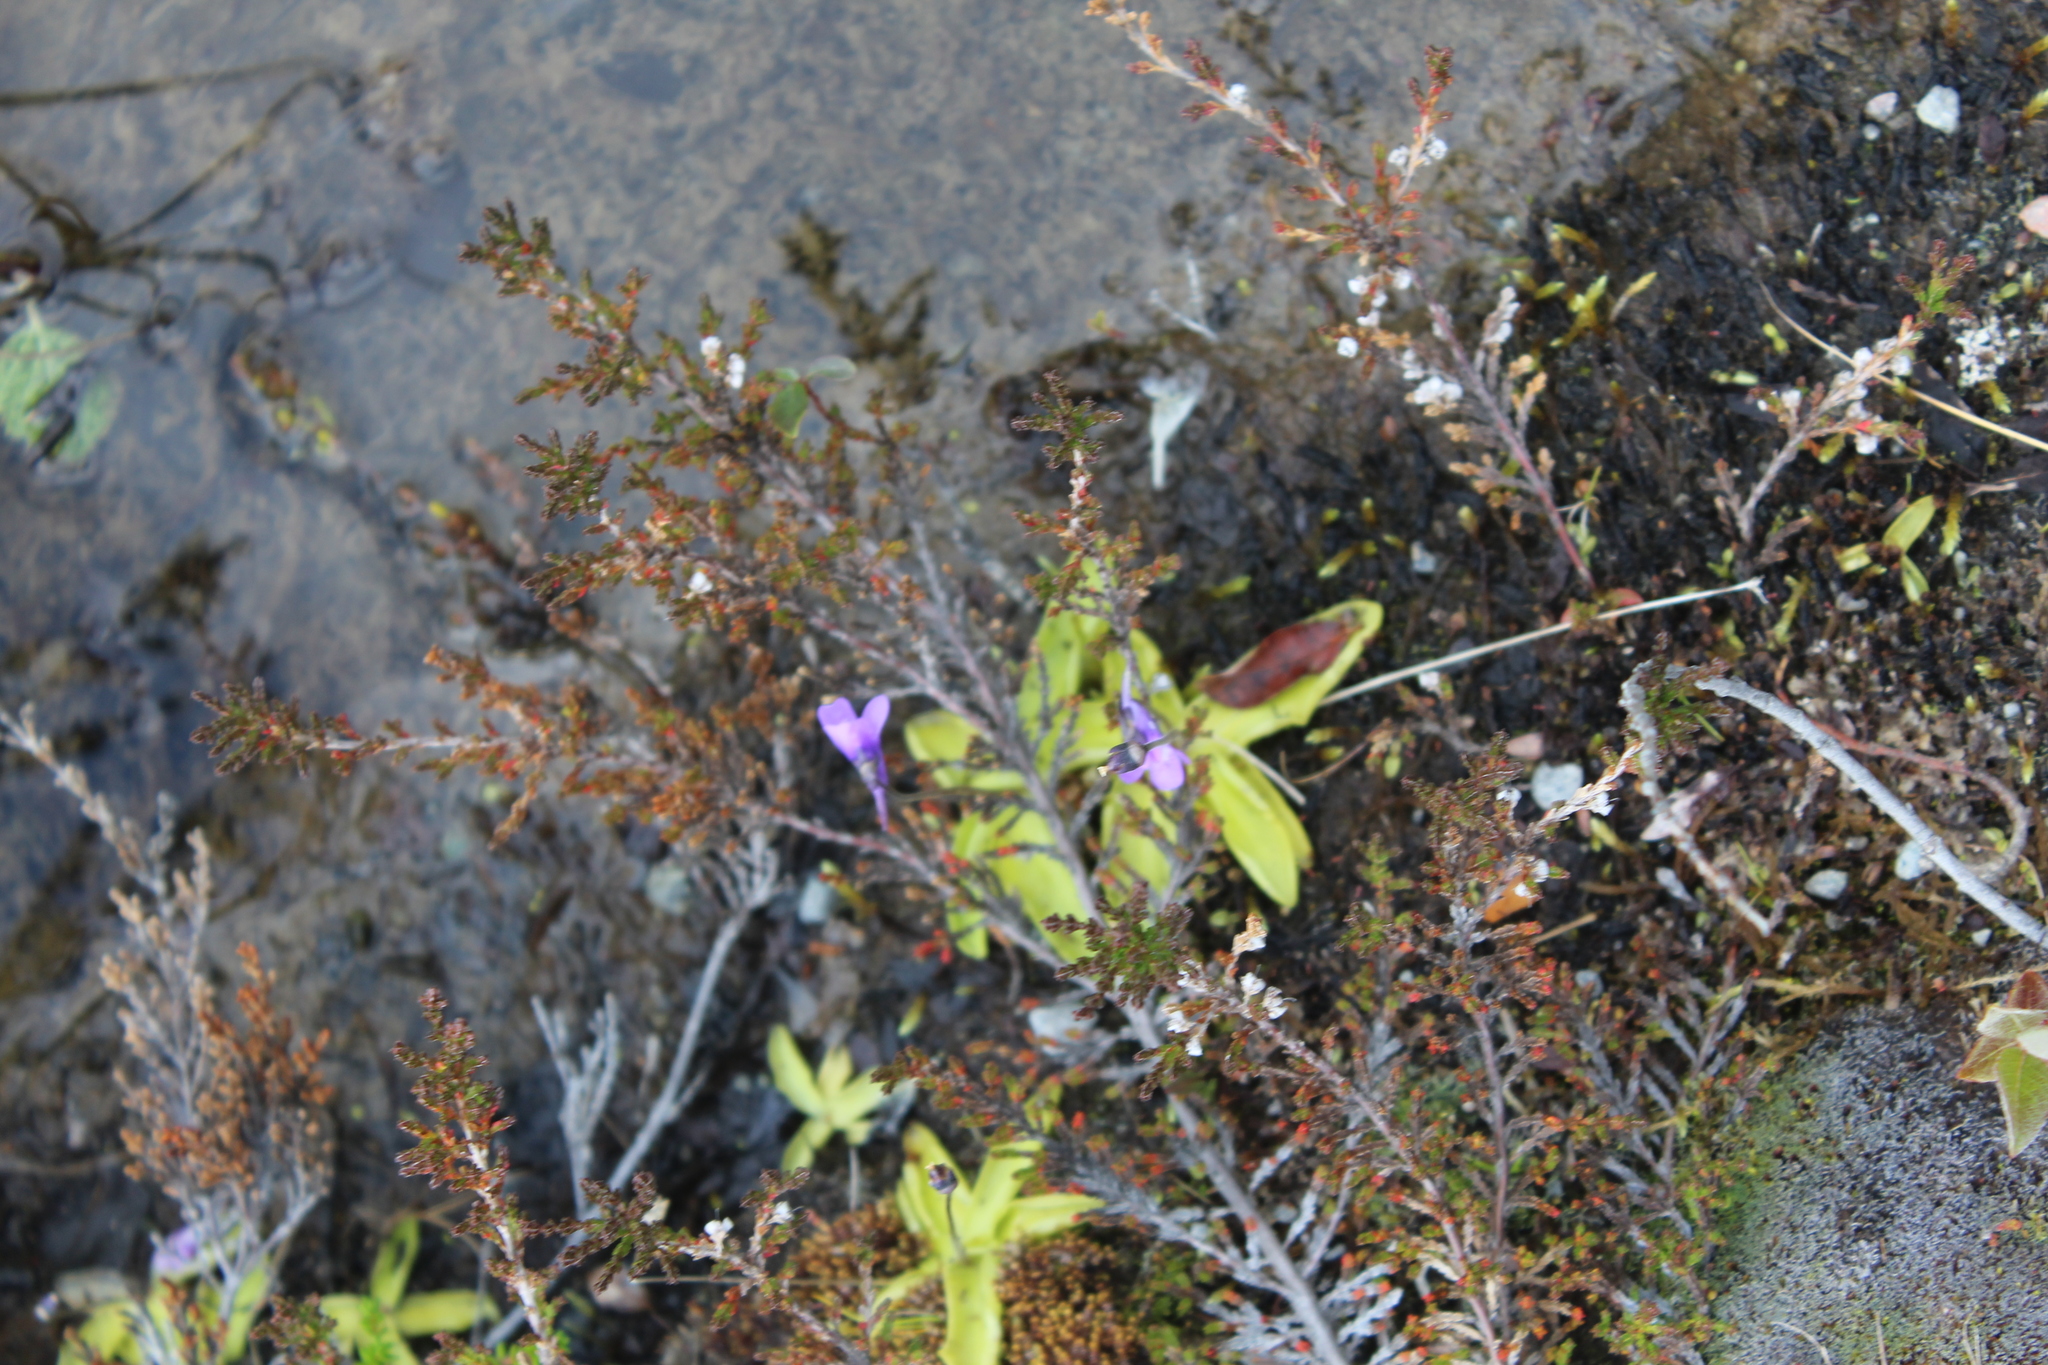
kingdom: Plantae
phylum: Tracheophyta
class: Magnoliopsida
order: Lamiales
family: Lentibulariaceae
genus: Pinguicula
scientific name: Pinguicula vulgaris
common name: Common butterwort
